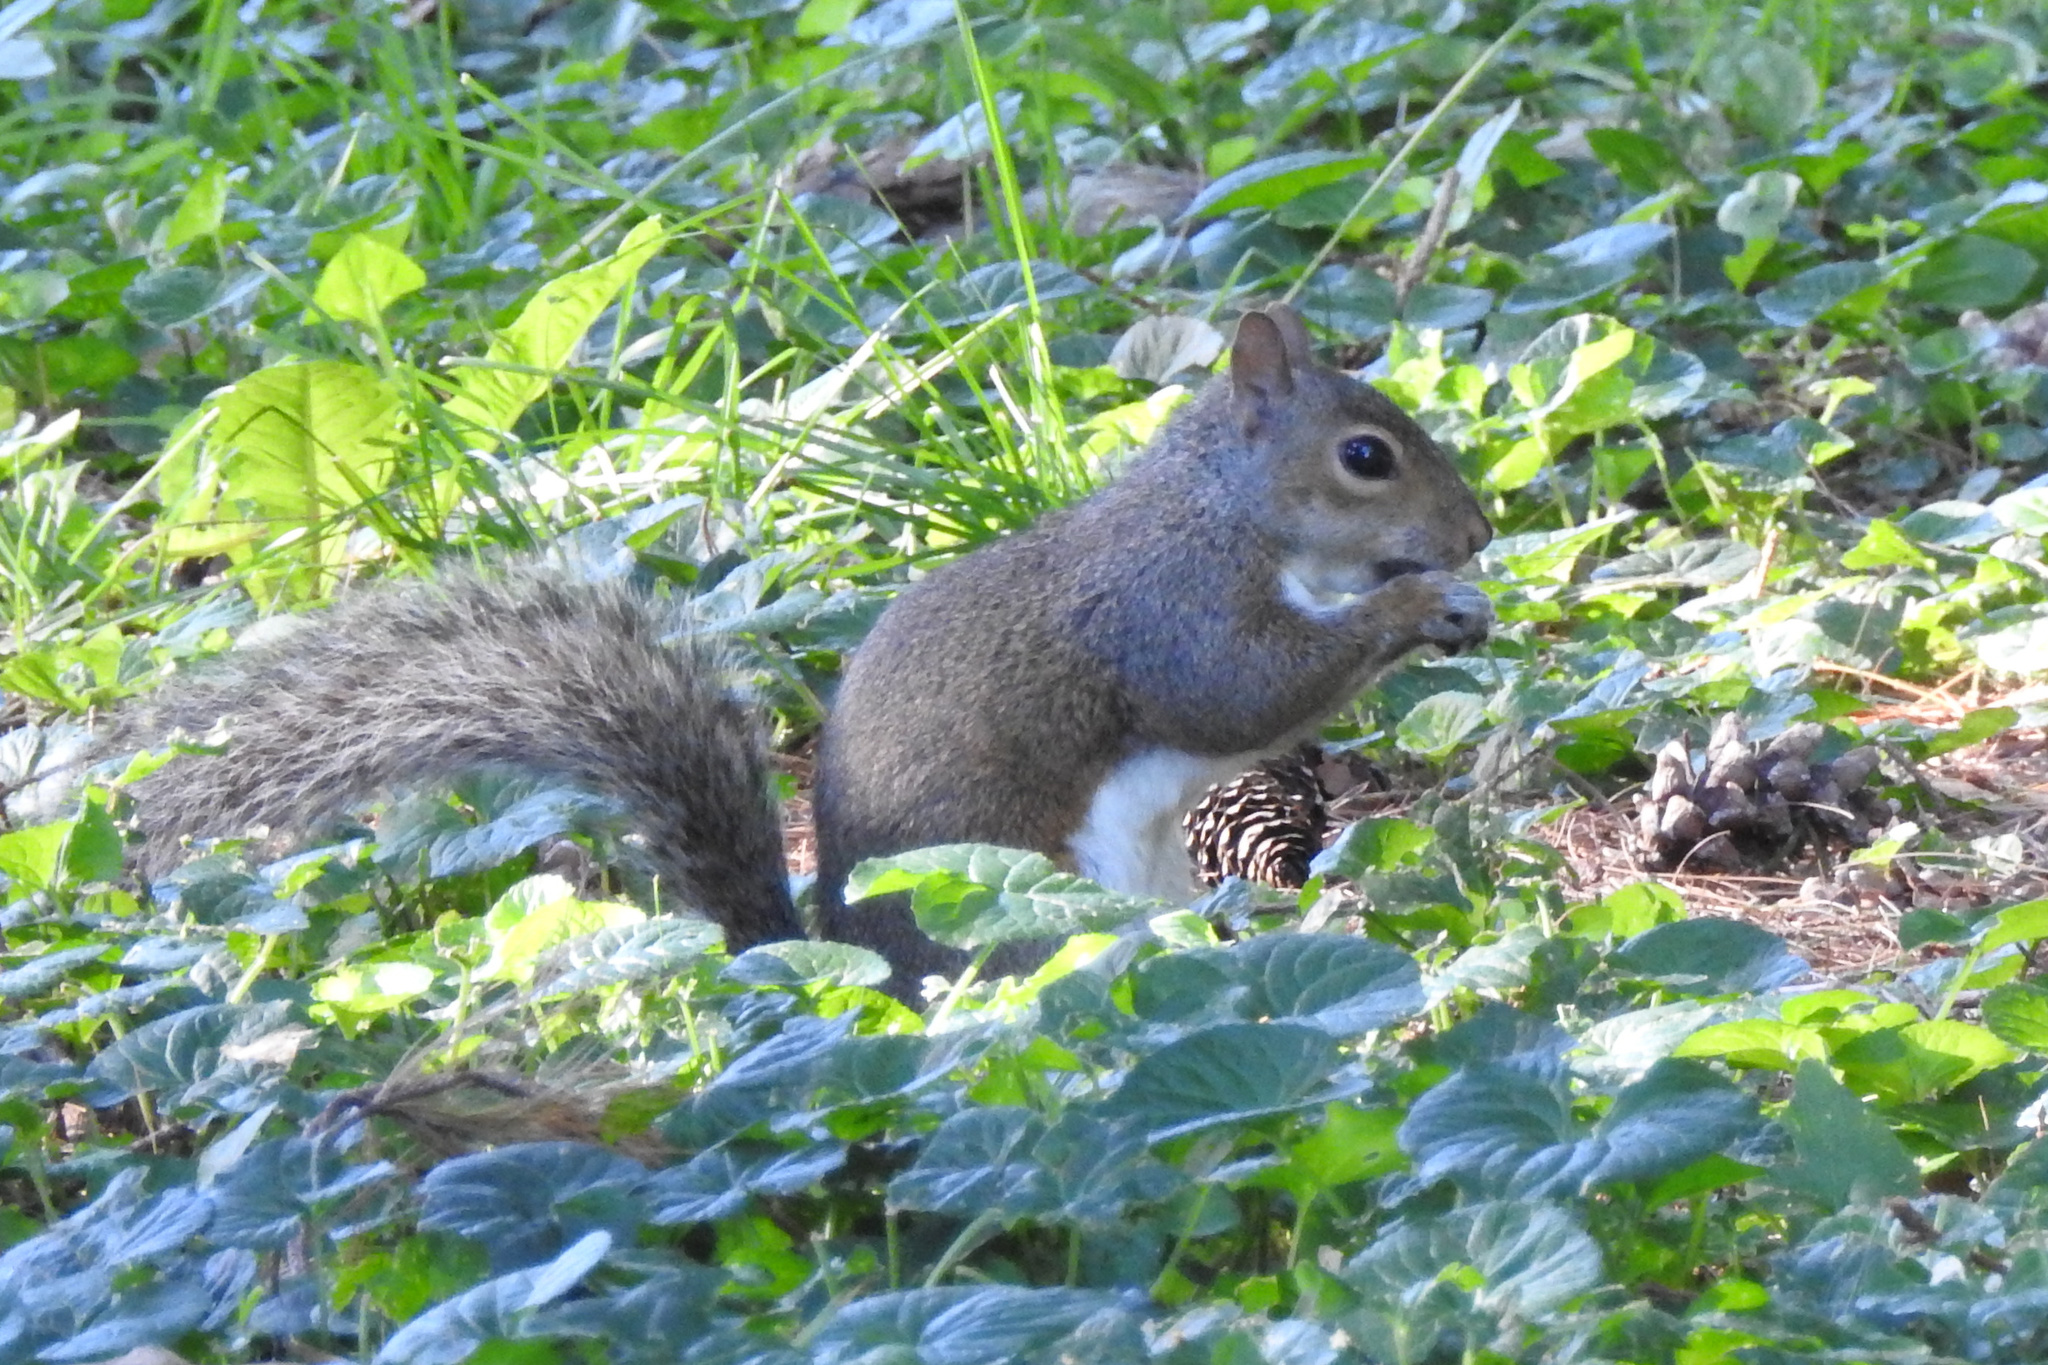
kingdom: Animalia
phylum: Chordata
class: Mammalia
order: Rodentia
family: Sciuridae
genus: Sciurus
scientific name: Sciurus carolinensis
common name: Eastern gray squirrel
